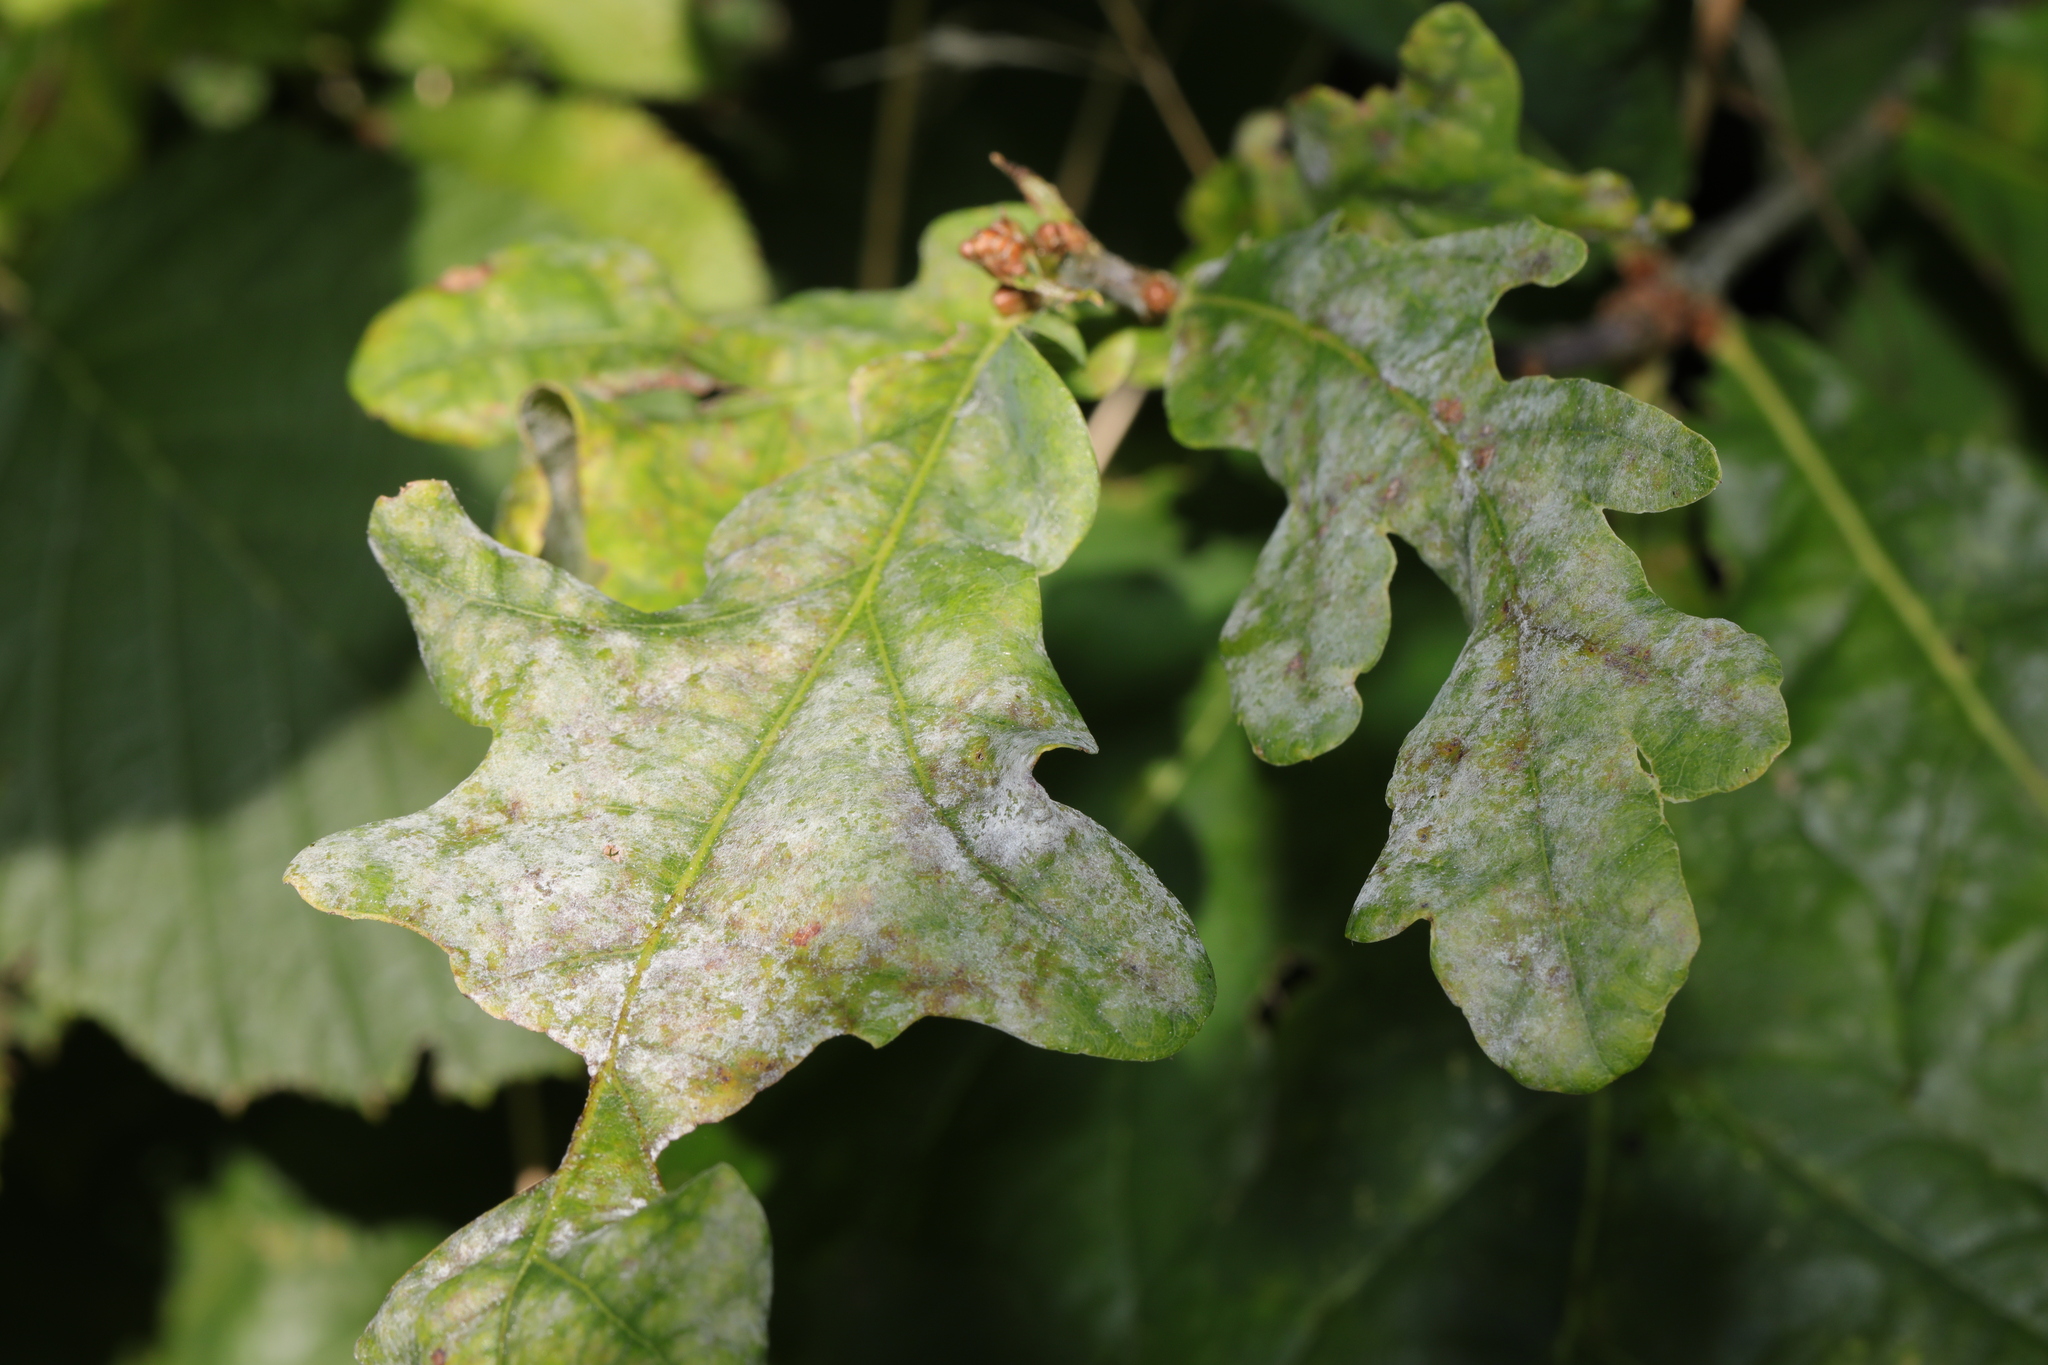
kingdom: Fungi
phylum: Ascomycota
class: Leotiomycetes
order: Helotiales
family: Erysiphaceae
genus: Erysiphe
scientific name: Erysiphe alphitoides
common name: Oak mildew
